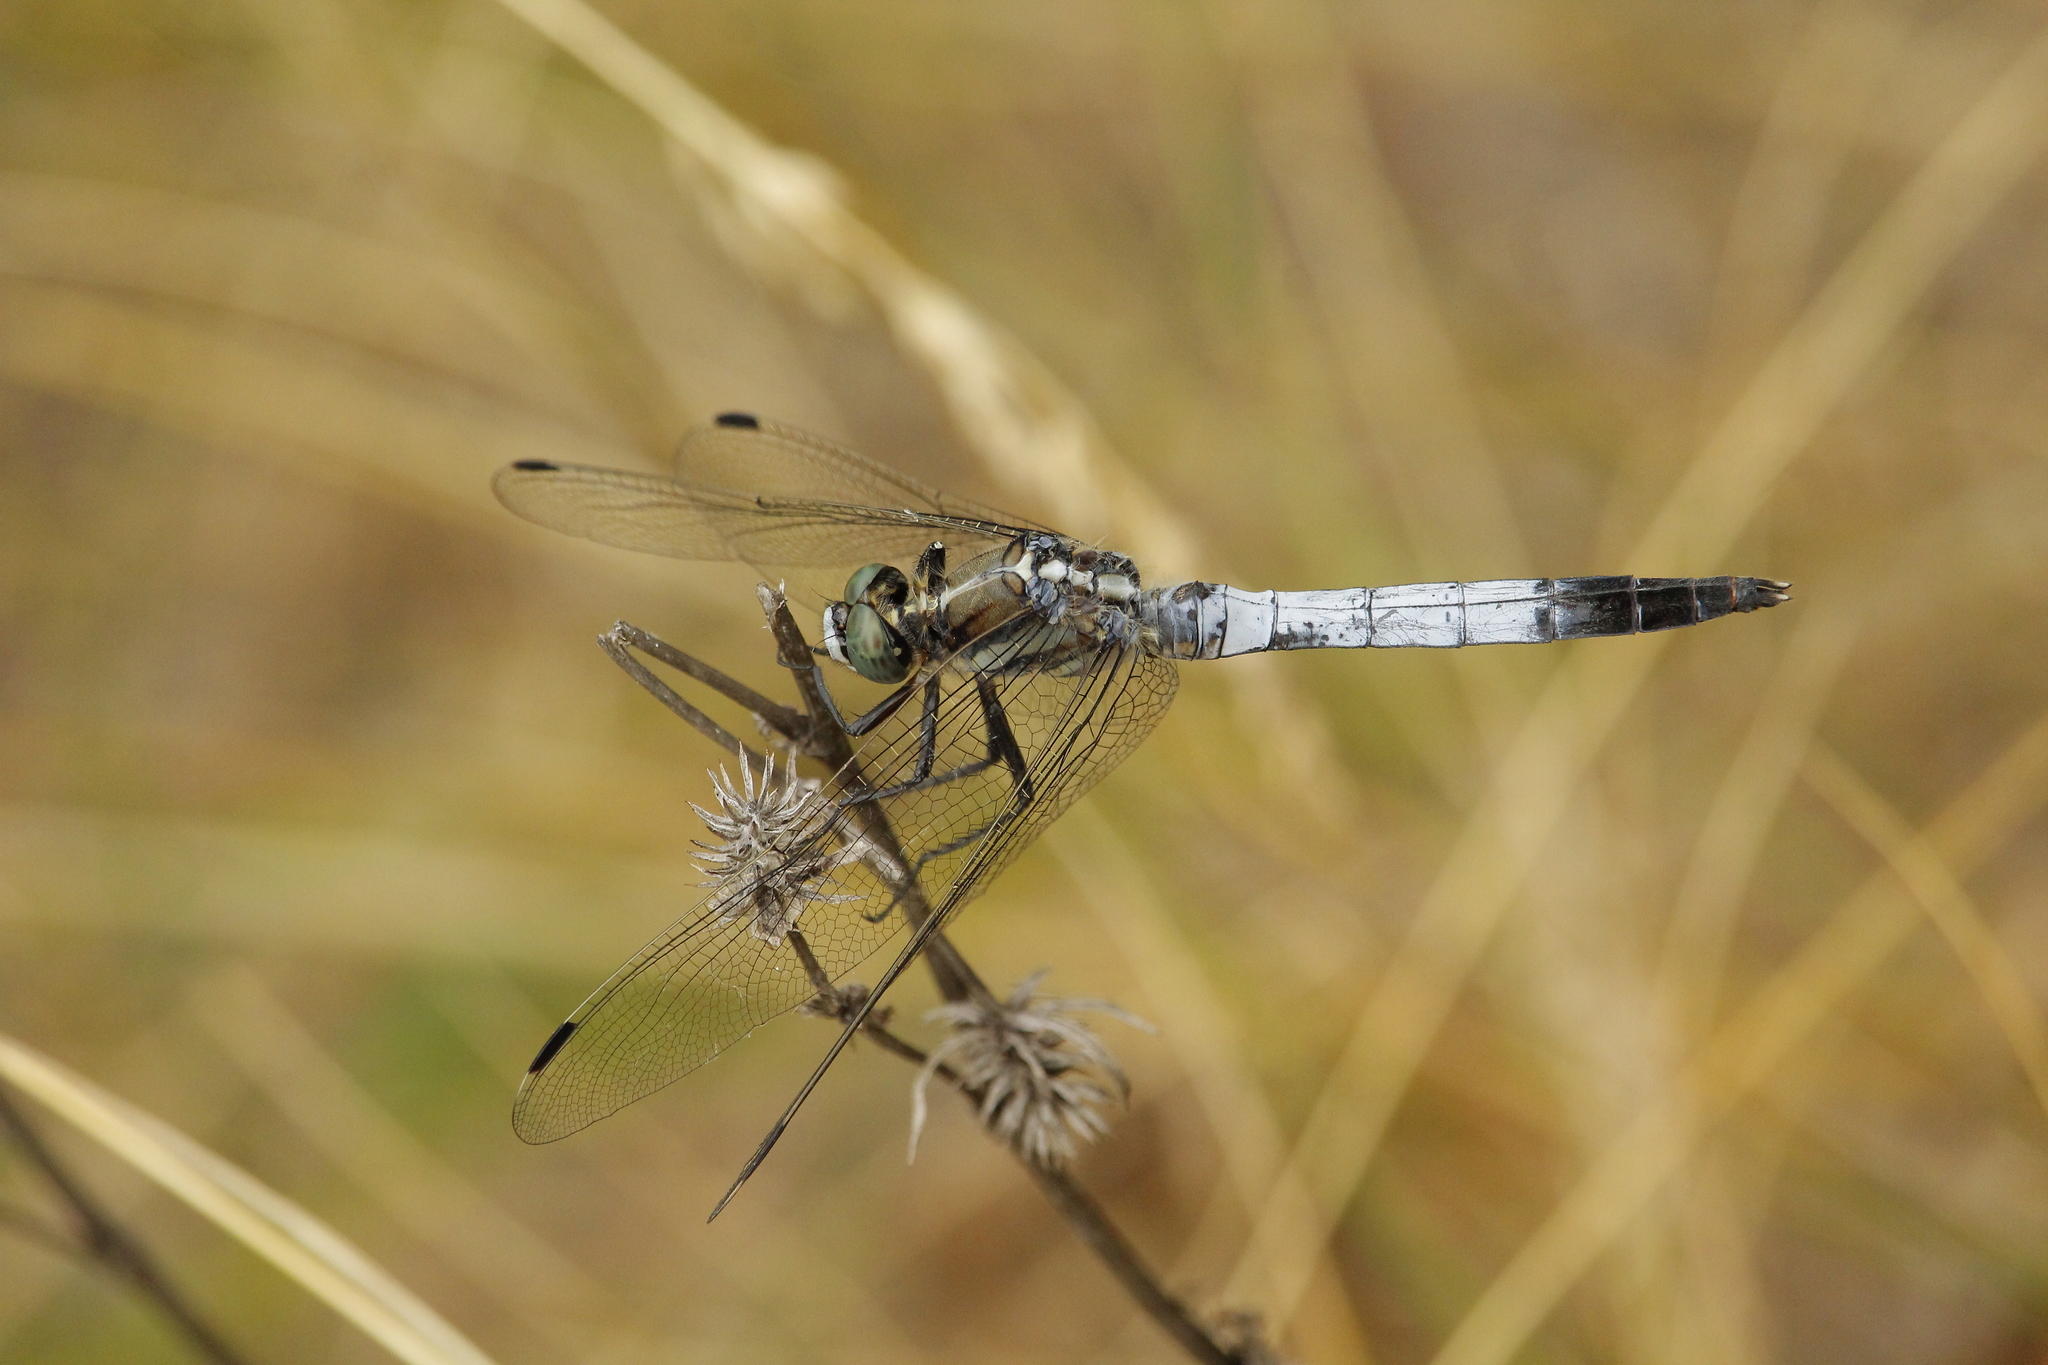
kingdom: Animalia
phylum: Arthropoda
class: Insecta
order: Odonata
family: Libellulidae
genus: Orthetrum
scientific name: Orthetrum albistylum
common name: White-tailed skimmer
